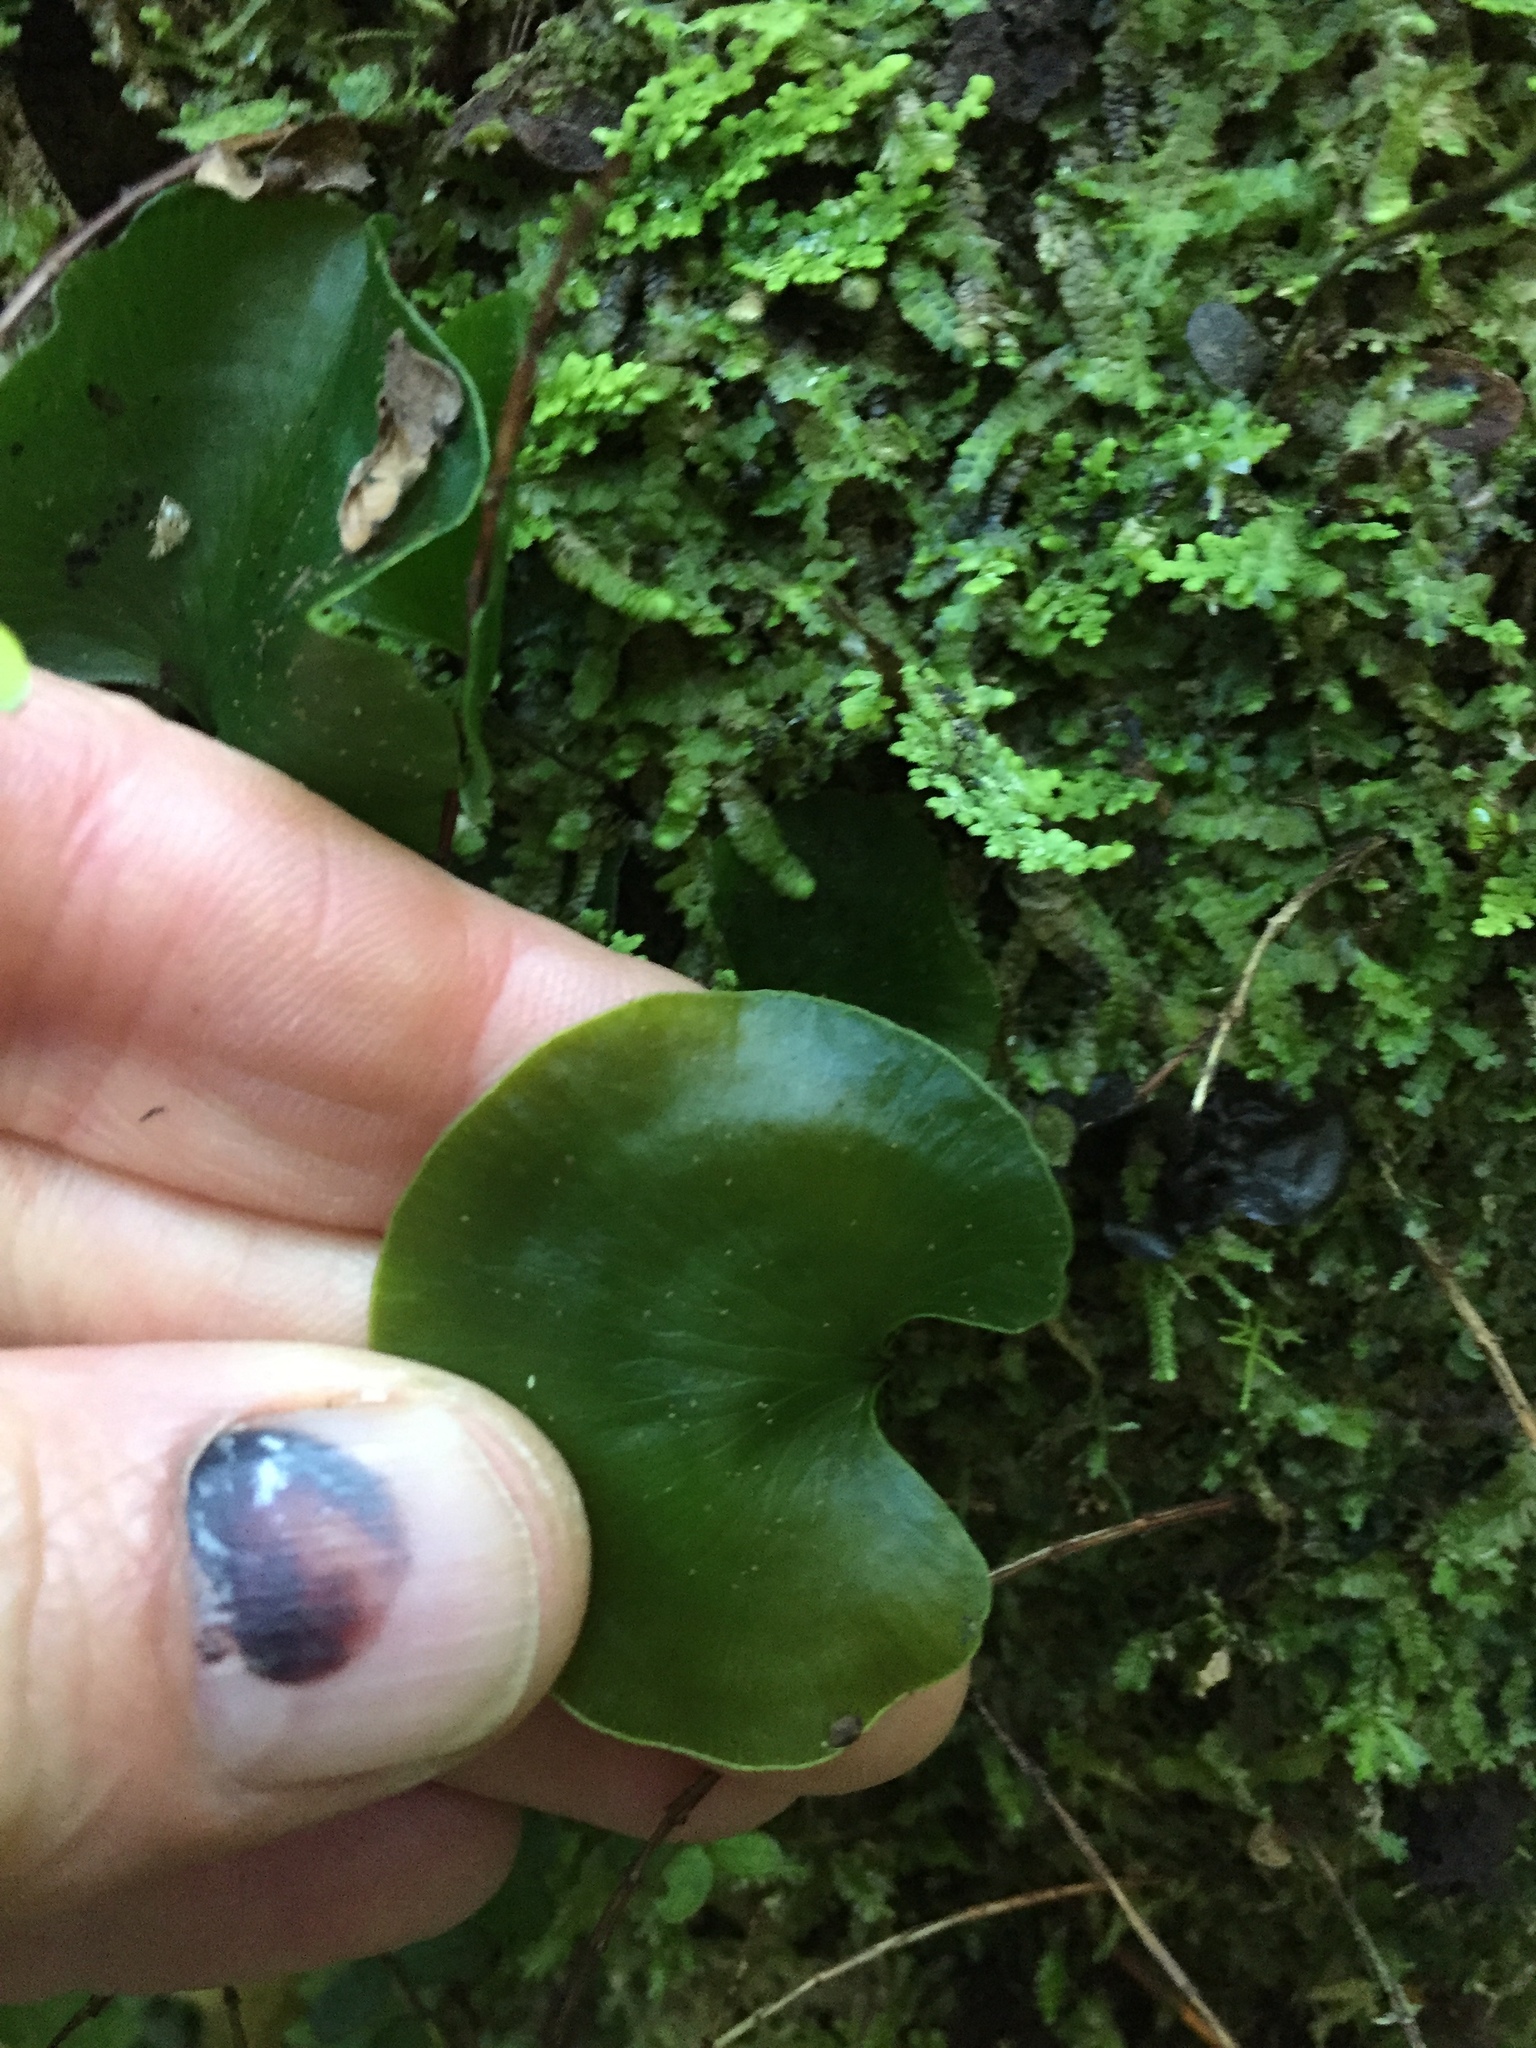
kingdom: Plantae
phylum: Tracheophyta
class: Polypodiopsida
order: Hymenophyllales
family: Hymenophyllaceae
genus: Hymenophyllum
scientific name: Hymenophyllum nephrophyllum
